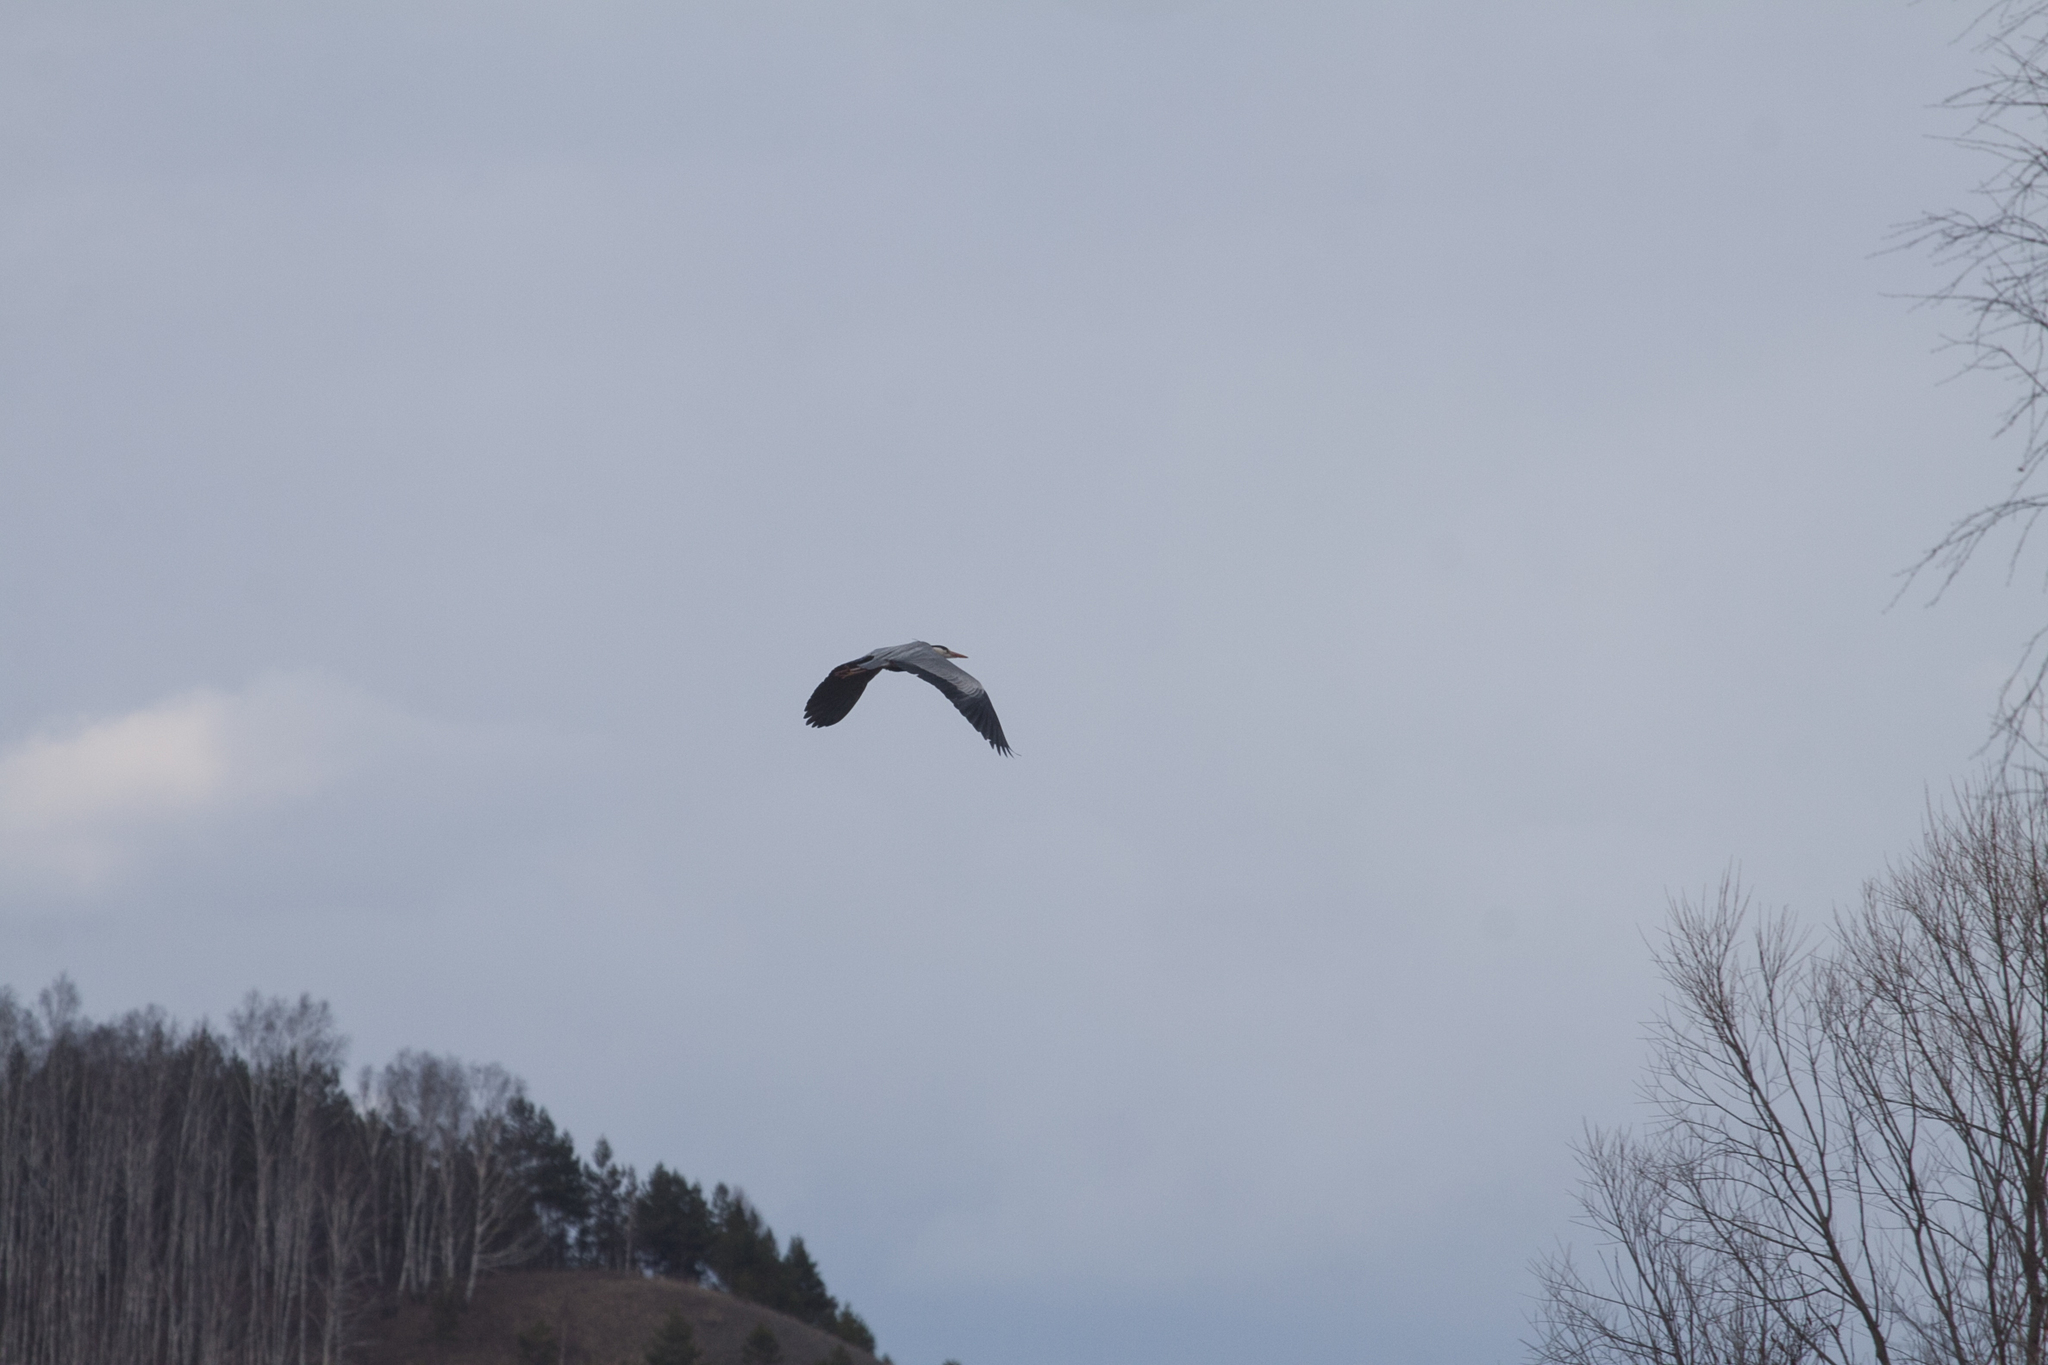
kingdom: Animalia
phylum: Chordata
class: Aves
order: Pelecaniformes
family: Ardeidae
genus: Ardea
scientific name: Ardea cinerea
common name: Grey heron
